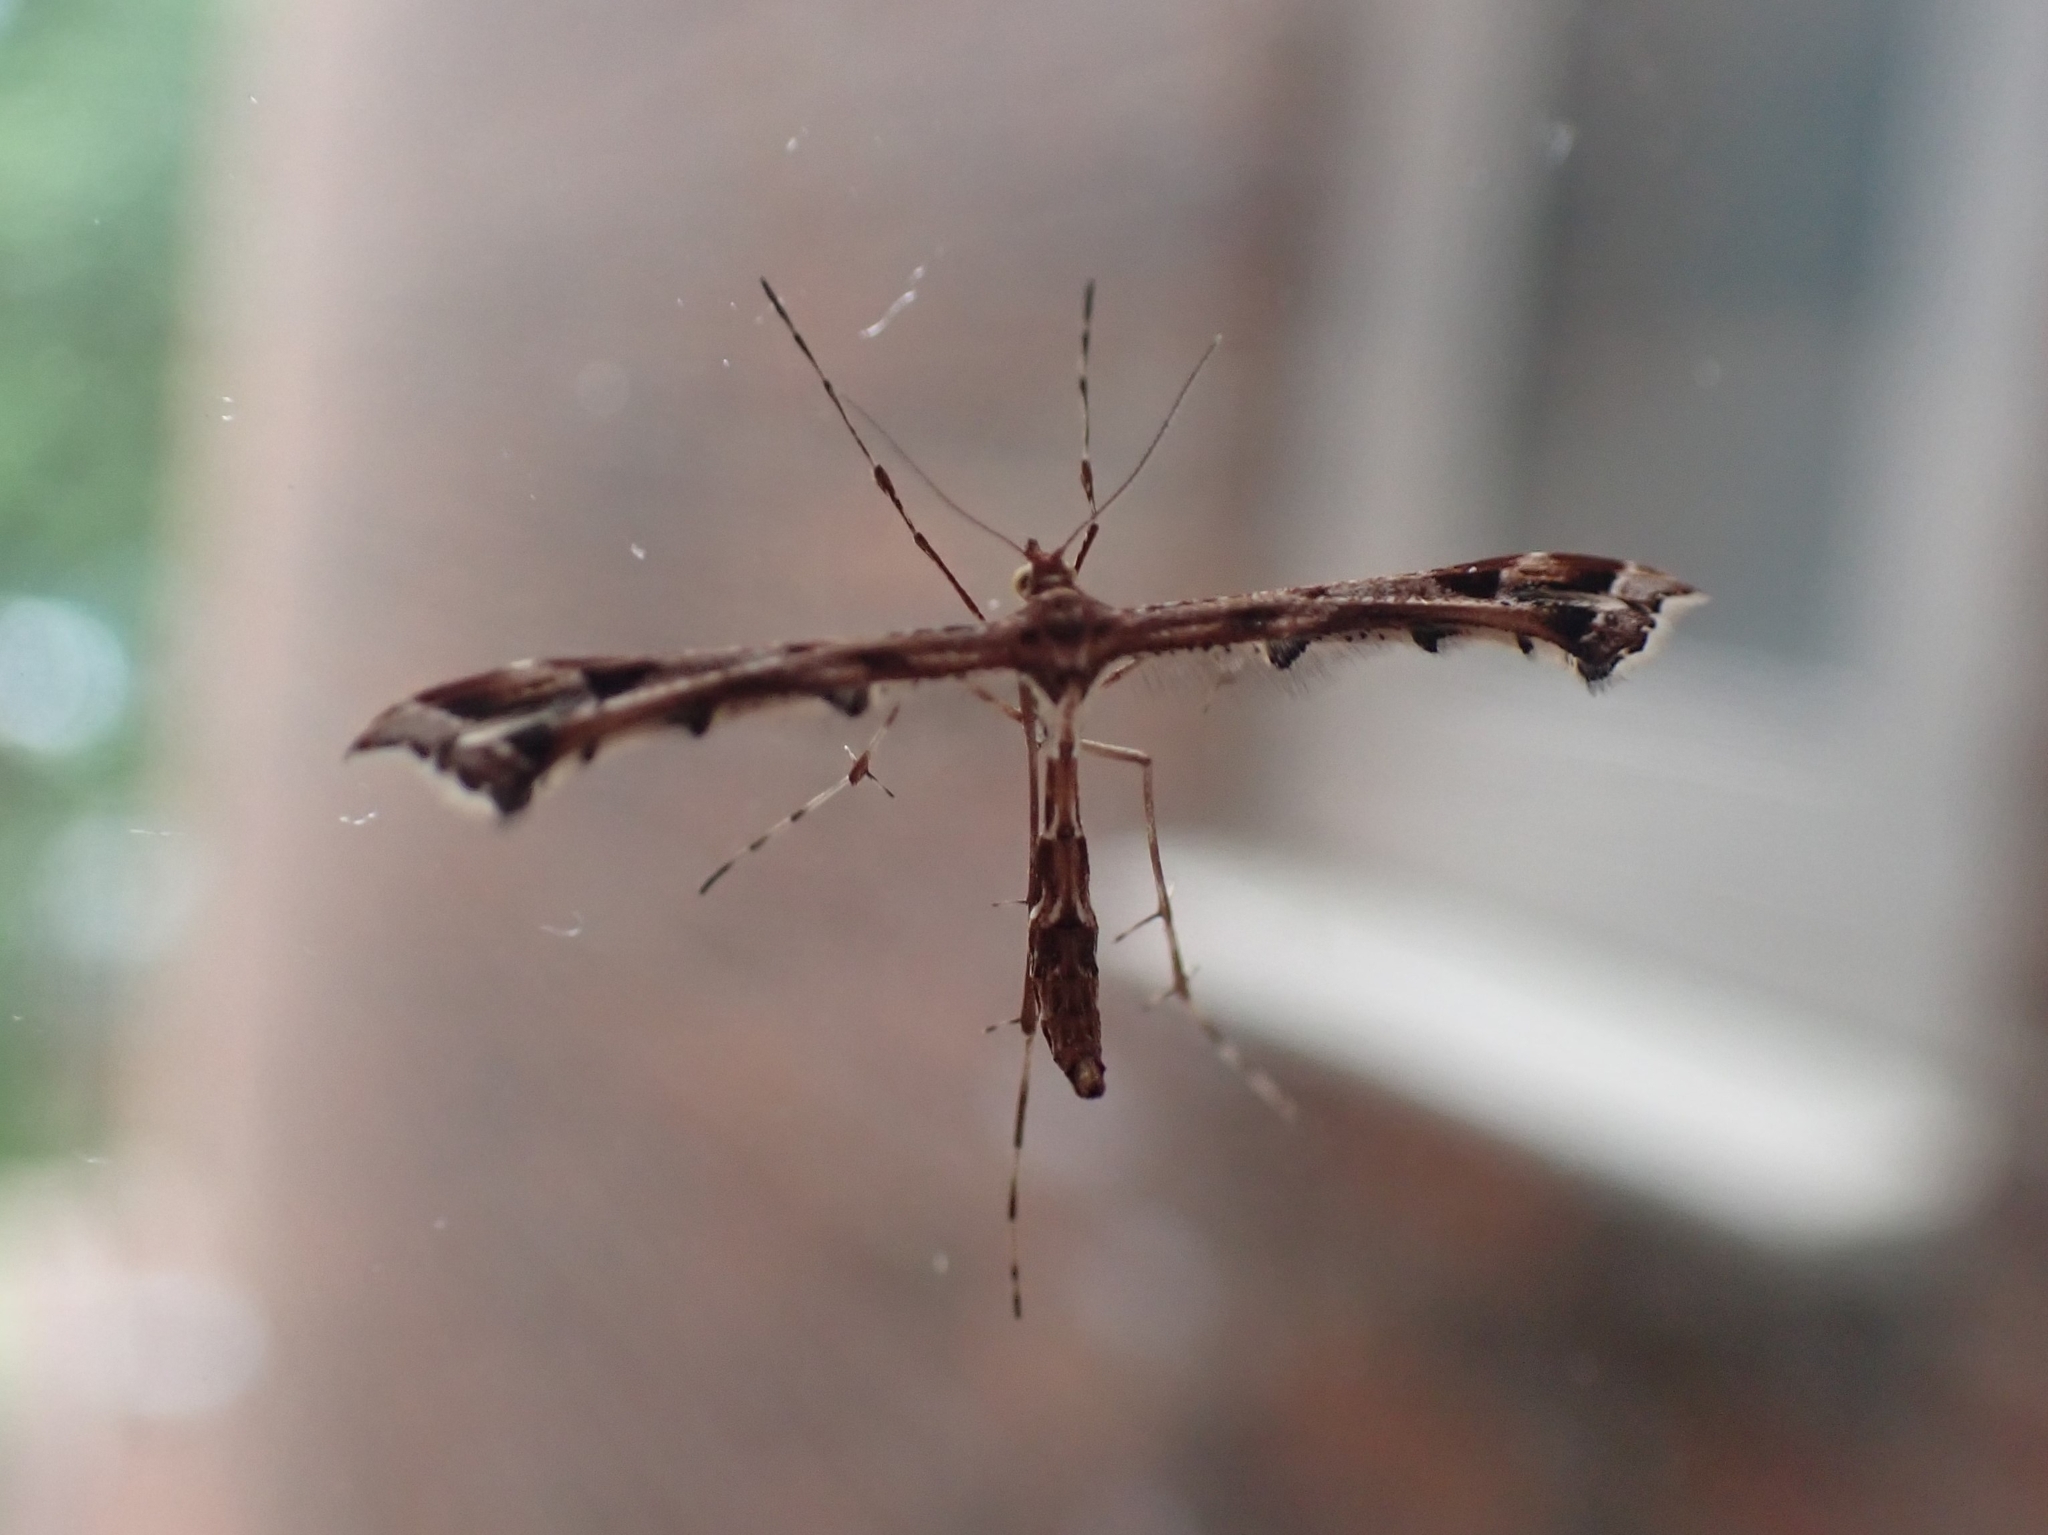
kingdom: Animalia
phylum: Arthropoda
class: Insecta
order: Lepidoptera
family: Pterophoridae
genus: Amblyptilia
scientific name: Amblyptilia acanthadactyla
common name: Beautiful plume
